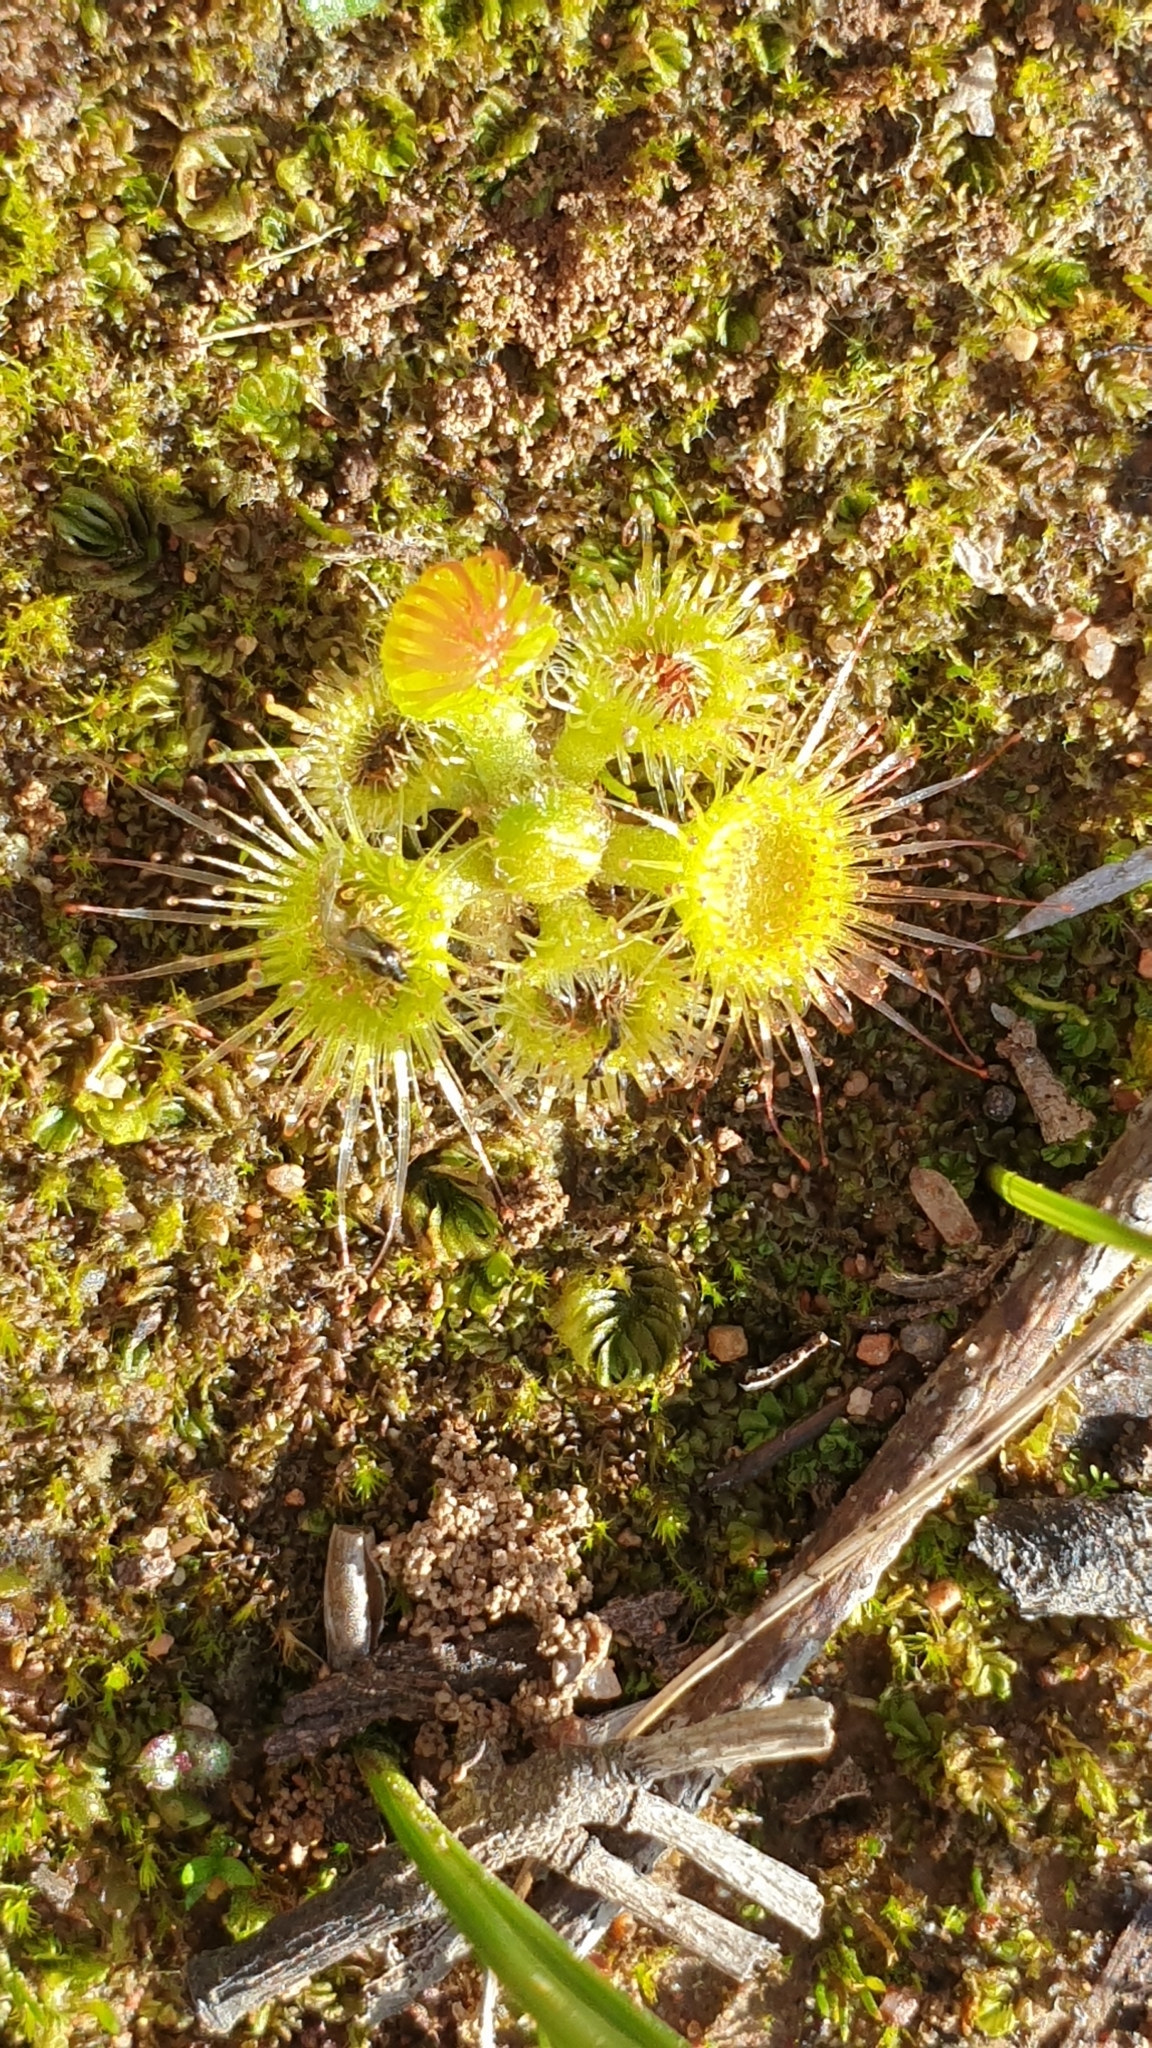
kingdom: Plantae
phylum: Tracheophyta
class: Magnoliopsida
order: Caryophyllales
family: Droseraceae
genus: Drosera
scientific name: Drosera glanduligera
